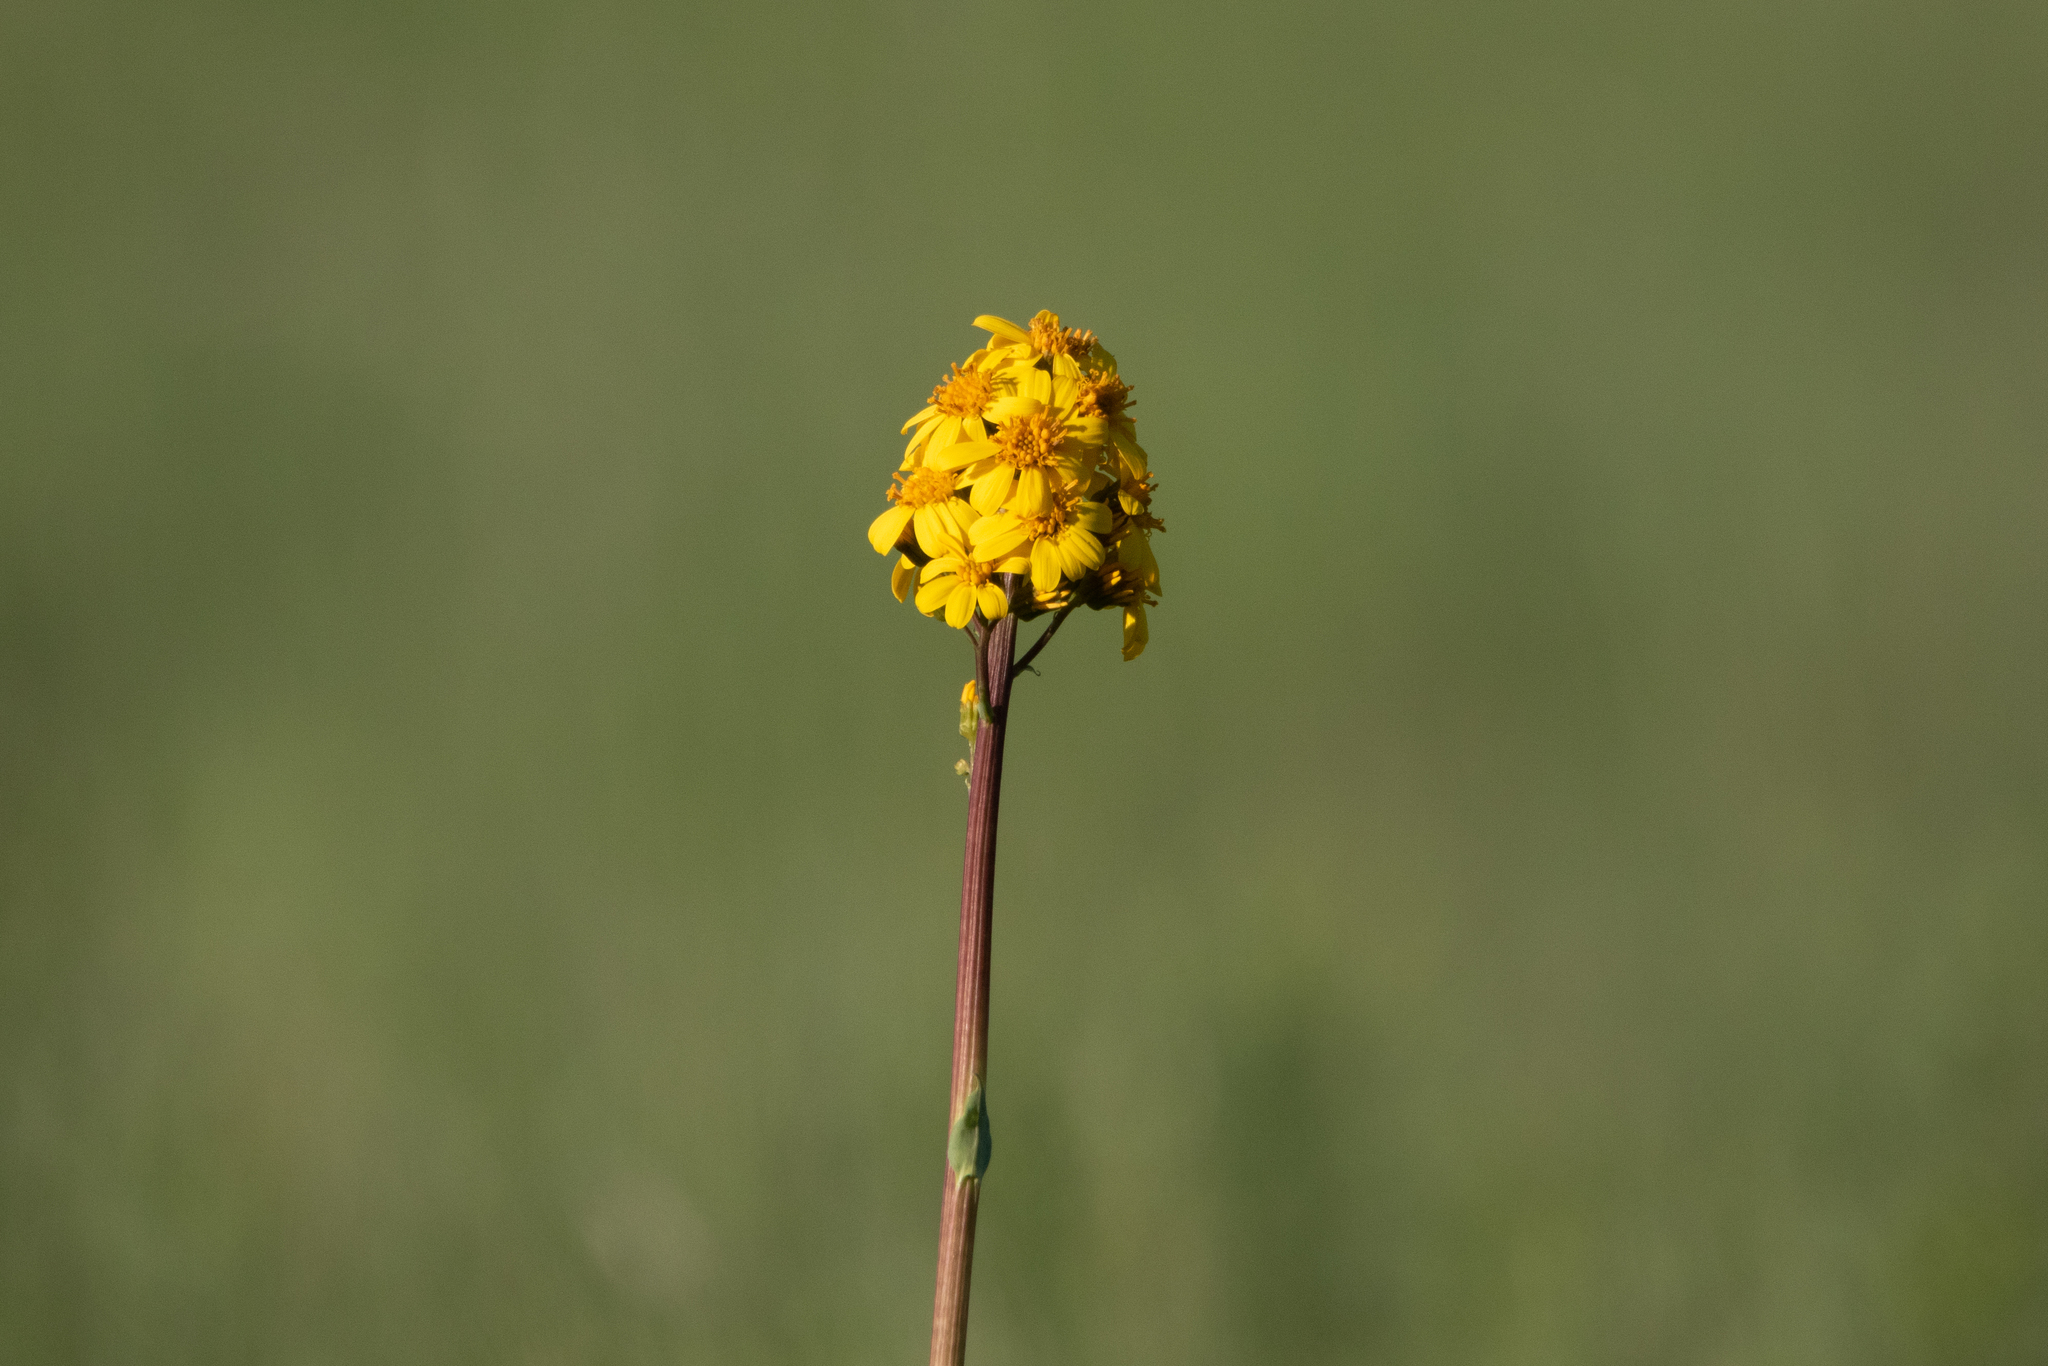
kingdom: Plantae
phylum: Tracheophyta
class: Magnoliopsida
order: Asterales
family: Asteraceae
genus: Ligularia
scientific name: Ligularia glauca
